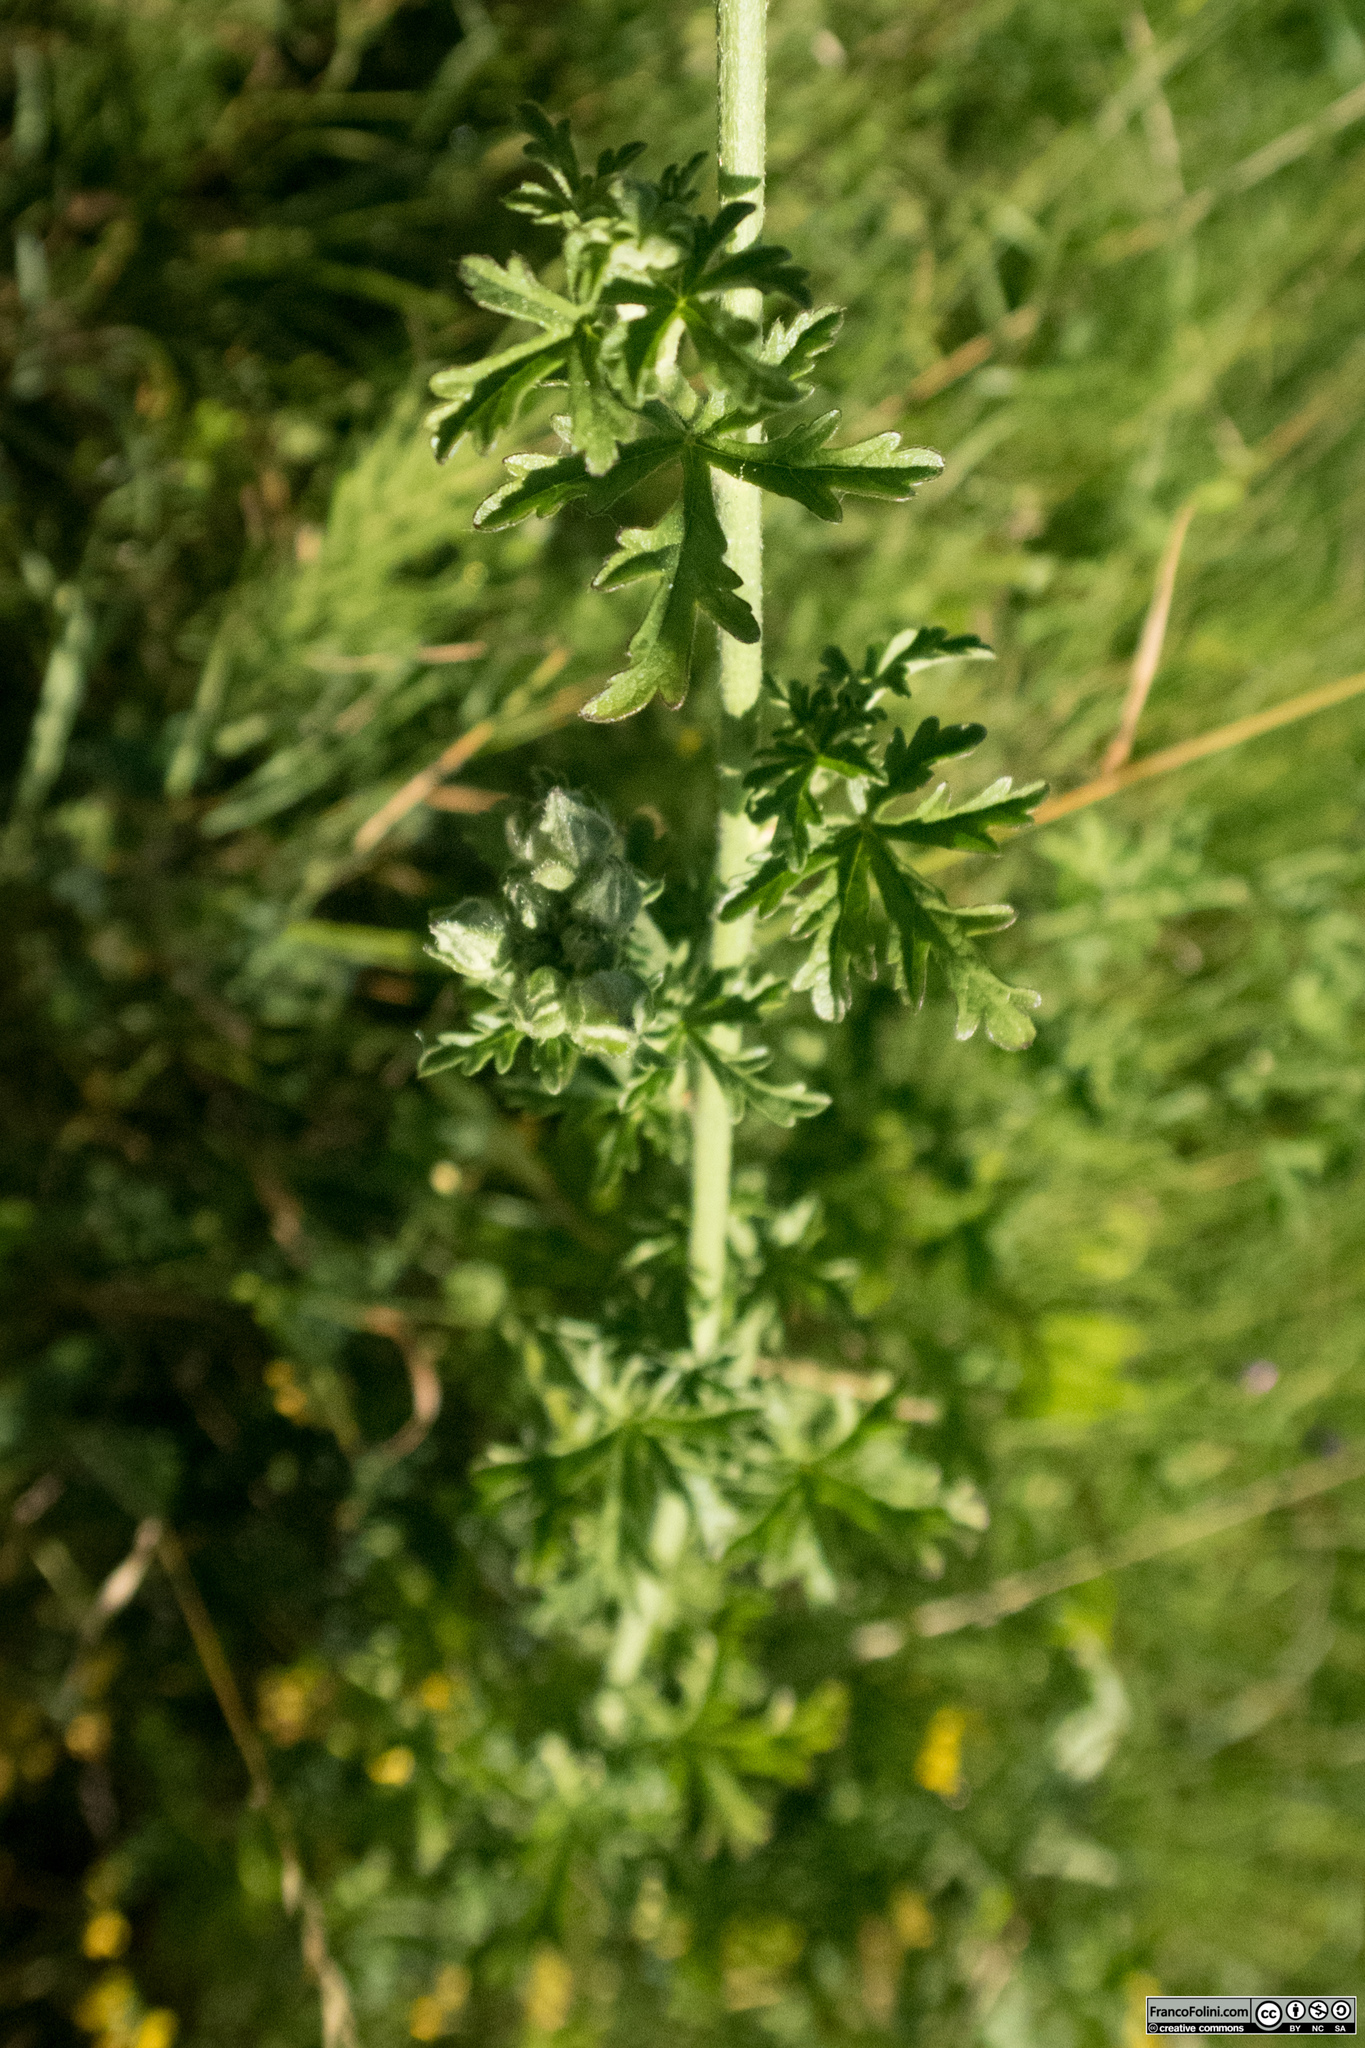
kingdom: Plantae
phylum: Tracheophyta
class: Magnoliopsida
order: Malvales
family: Malvaceae
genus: Malva
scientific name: Malva alcea
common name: Greater musk-mallow
